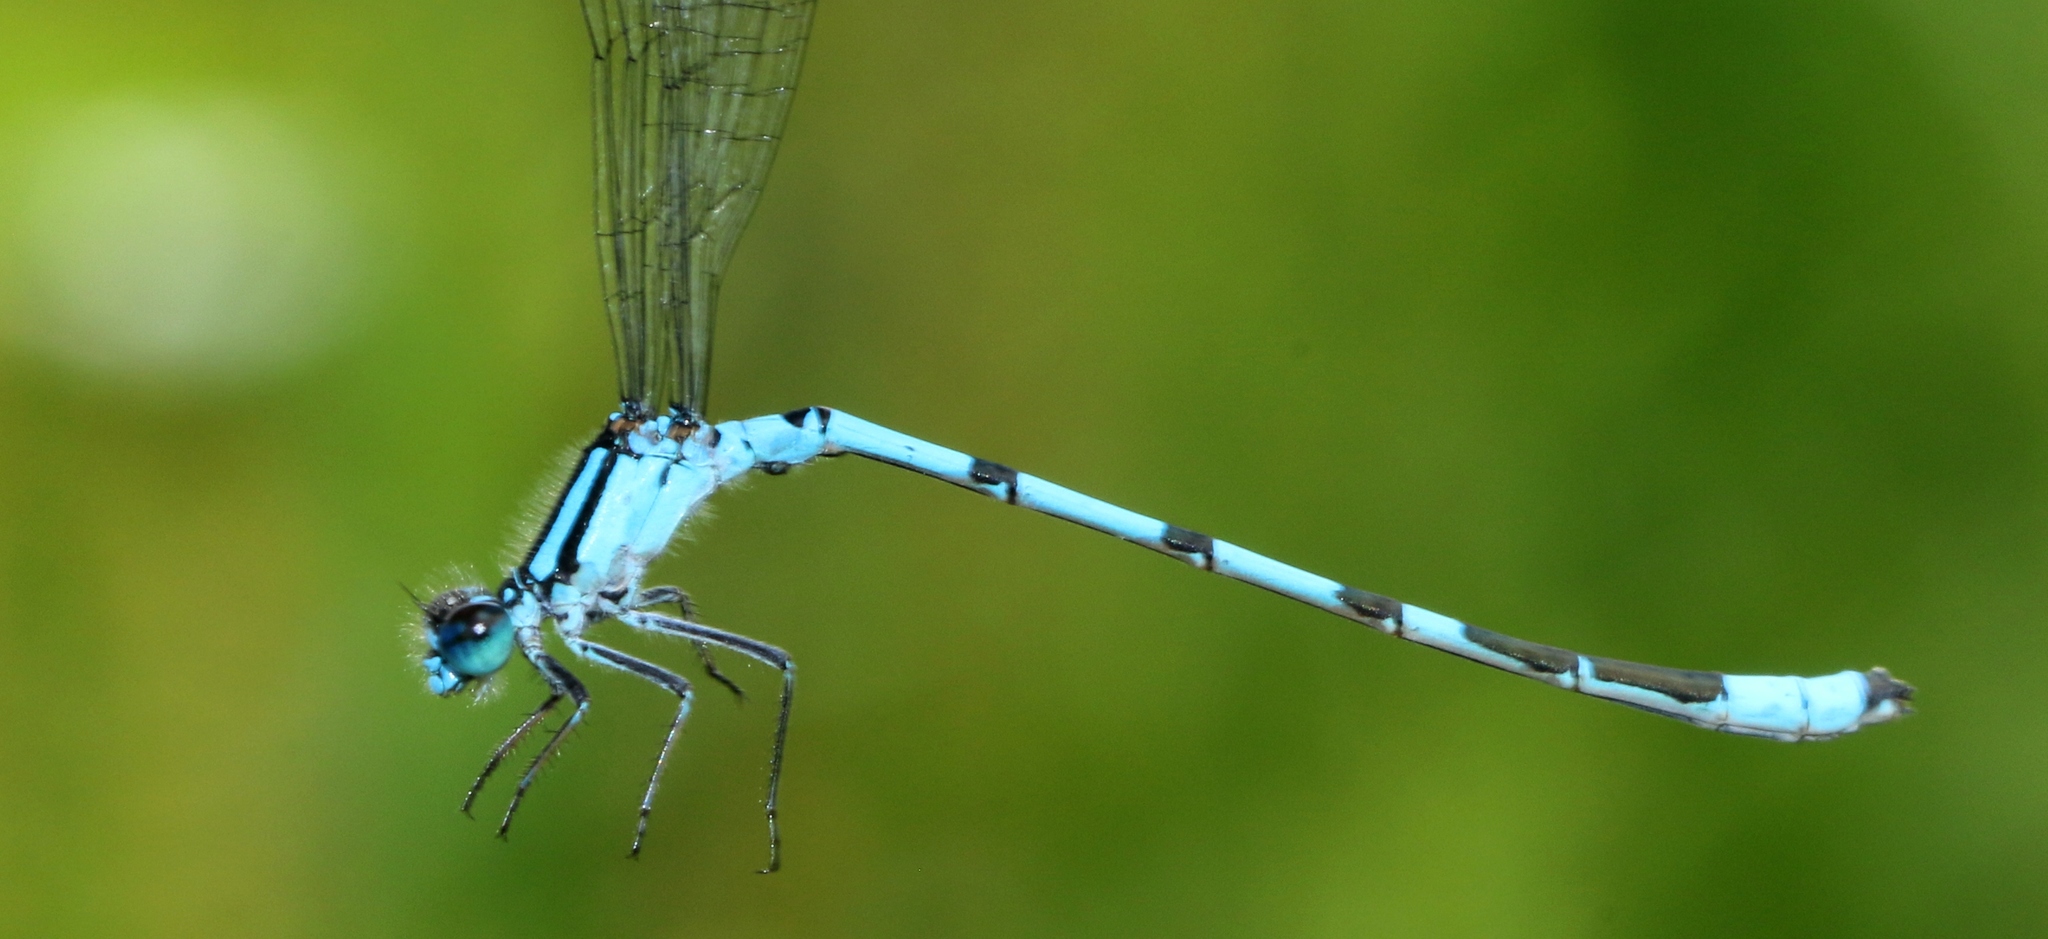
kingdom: Animalia
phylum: Arthropoda
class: Insecta
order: Odonata
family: Coenagrionidae
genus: Enallagma
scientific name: Enallagma ebrium
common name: Marsh bluet
